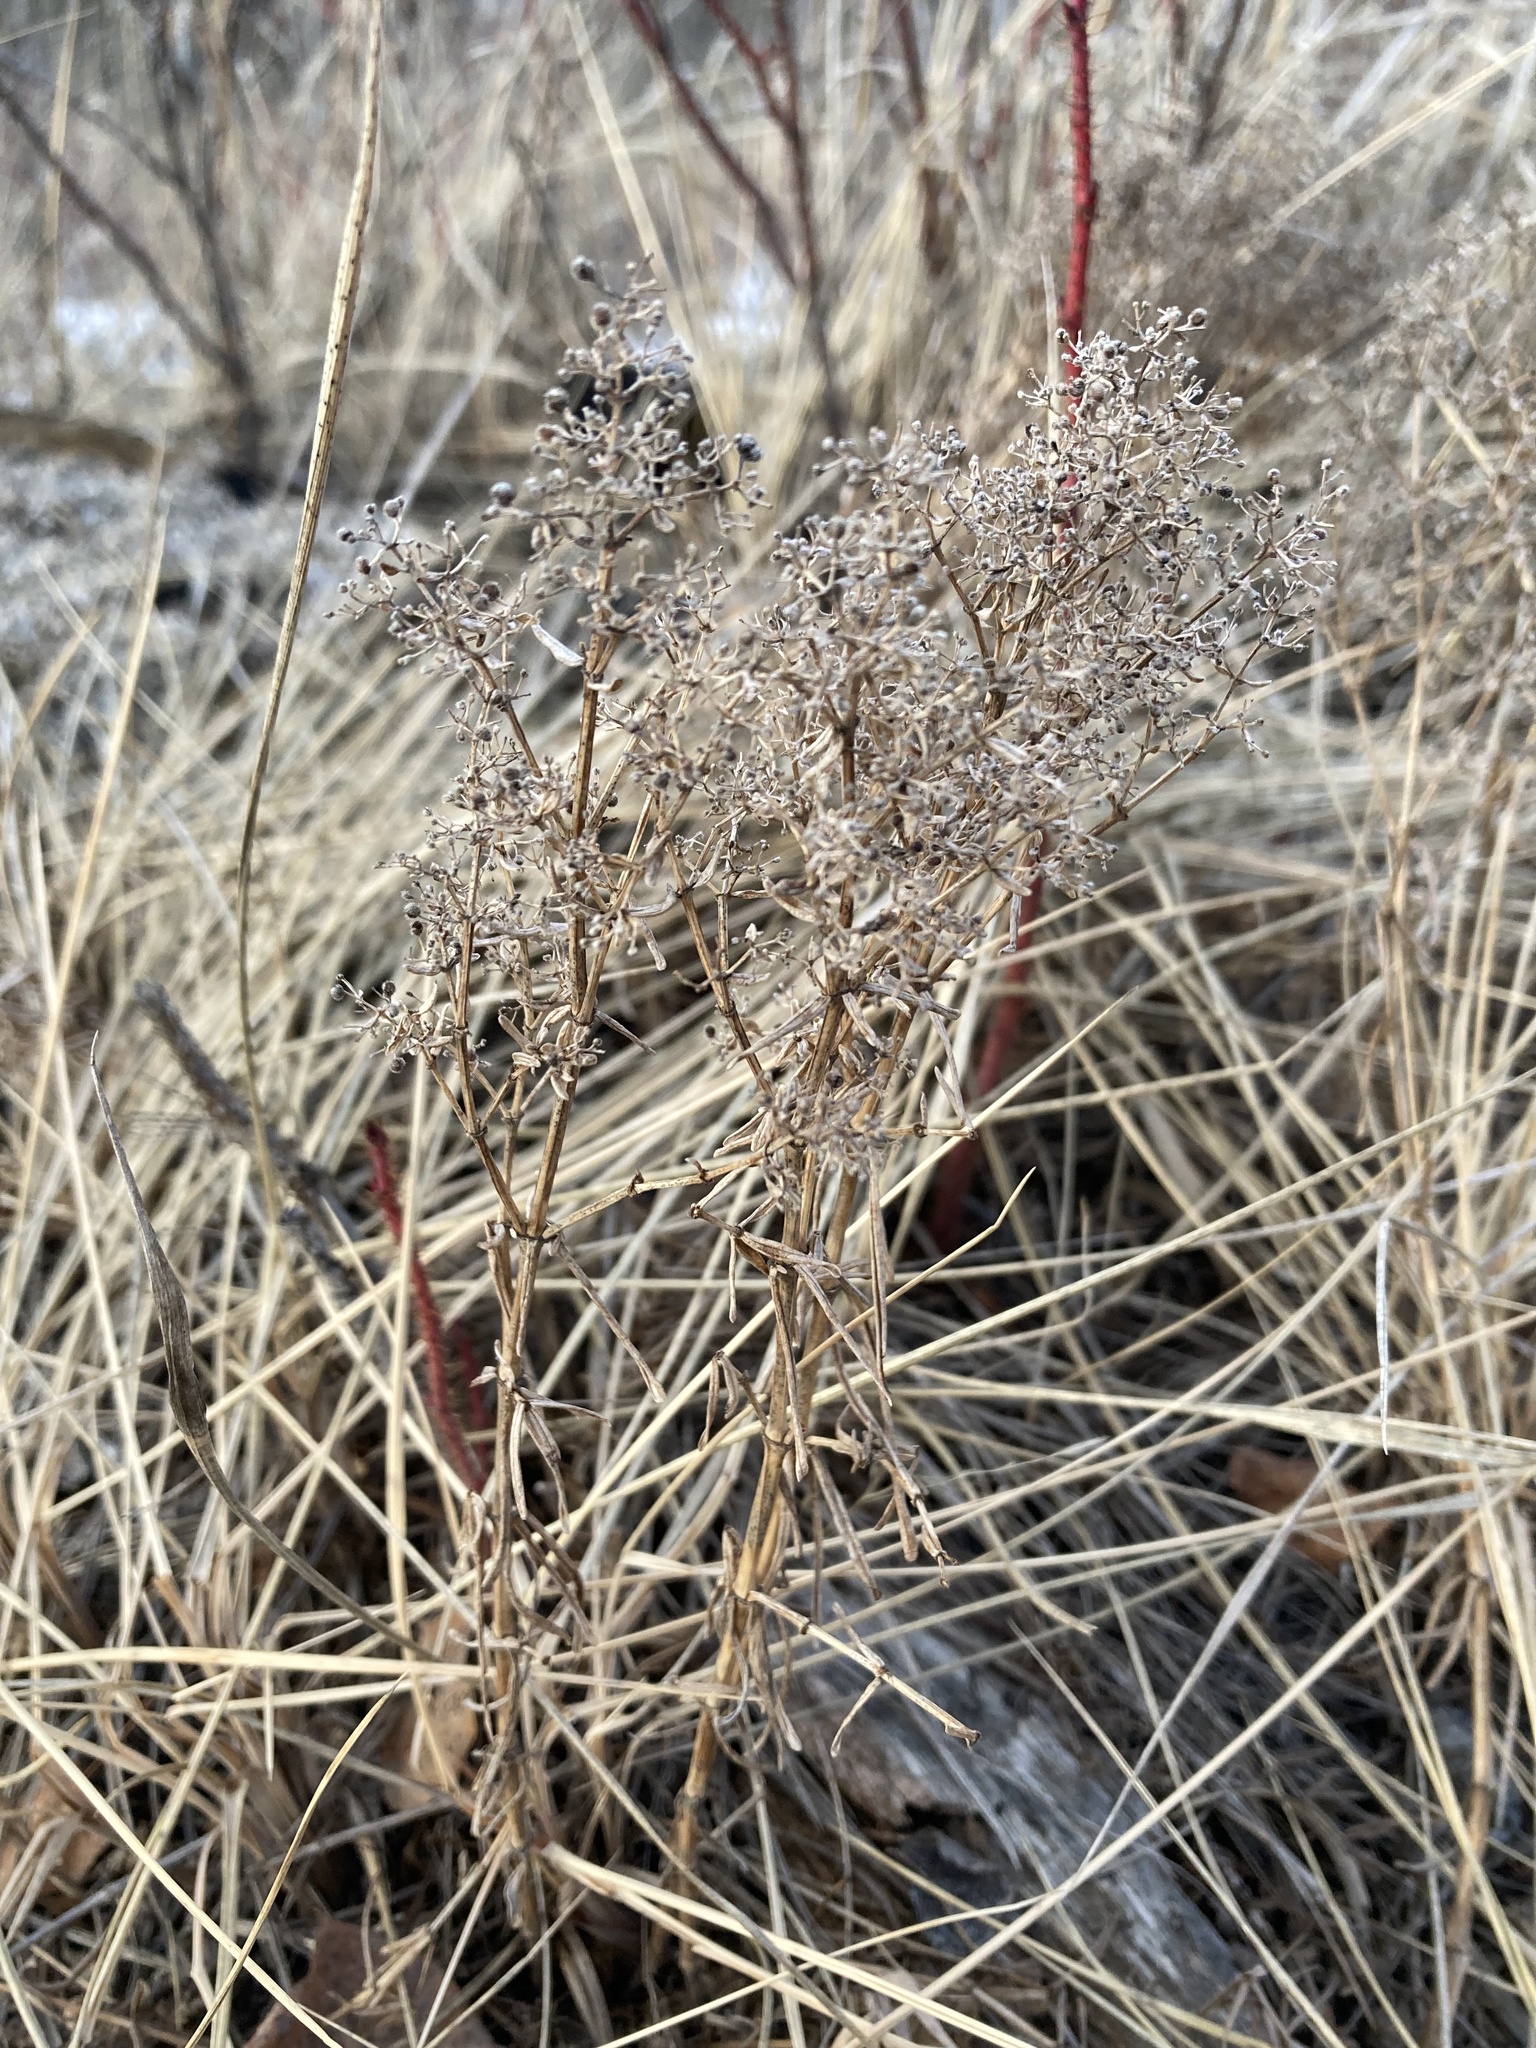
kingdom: Plantae
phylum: Tracheophyta
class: Magnoliopsida
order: Gentianales
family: Rubiaceae
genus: Galium
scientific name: Galium boreale
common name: Northern bedstraw
